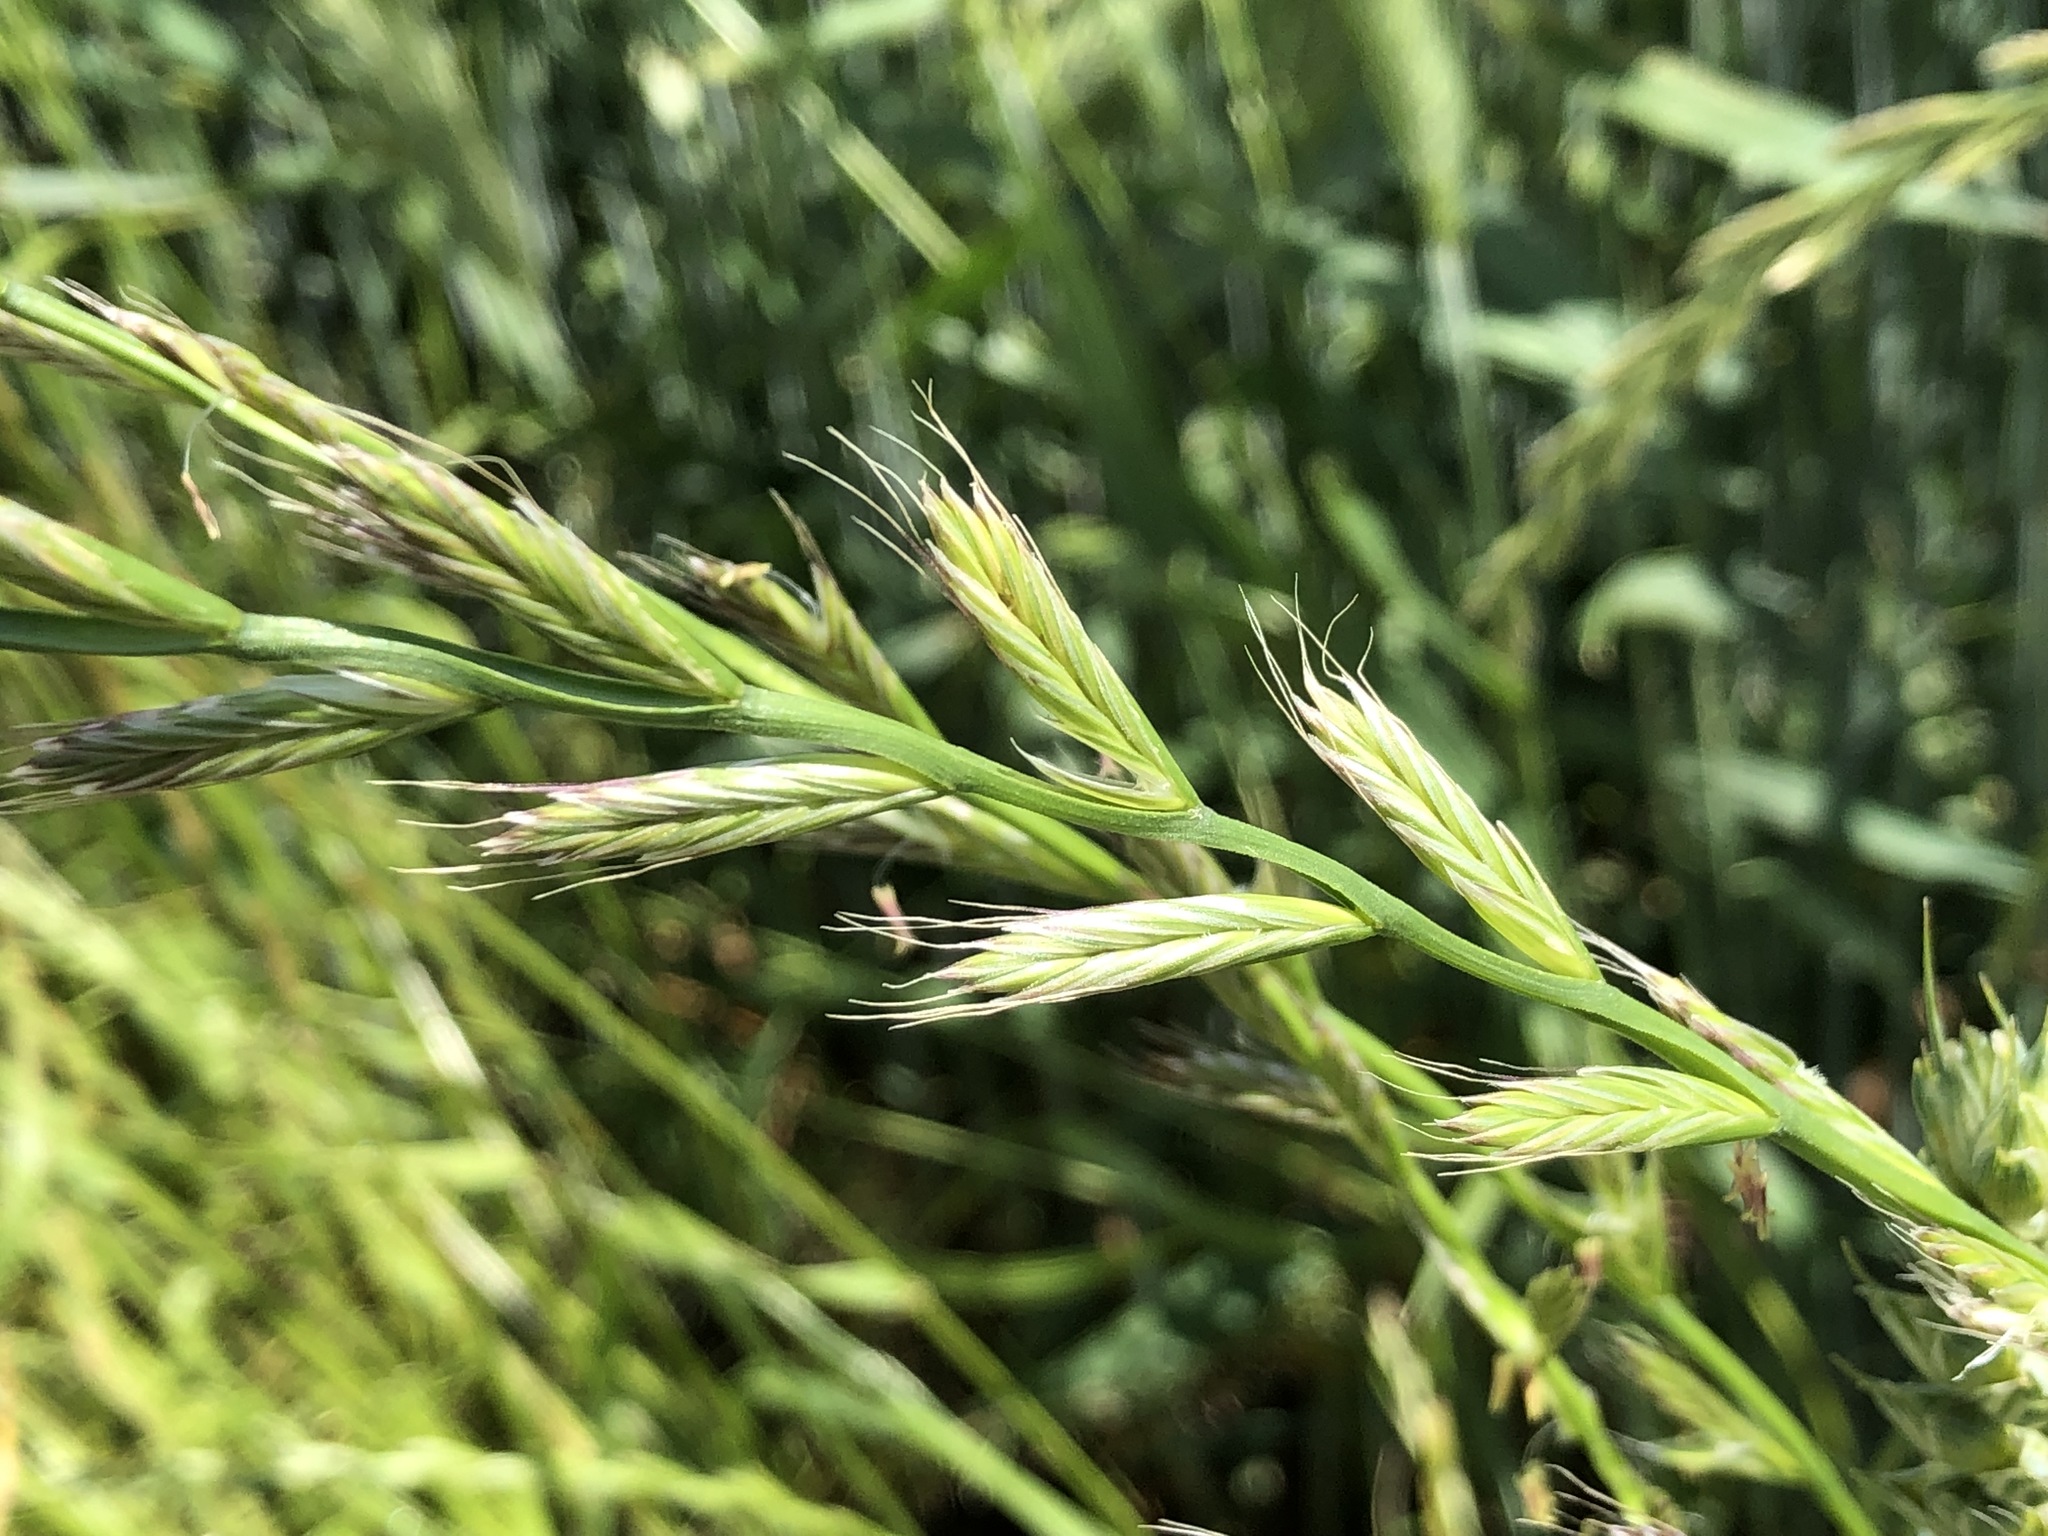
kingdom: Plantae
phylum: Tracheophyta
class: Liliopsida
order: Poales
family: Poaceae
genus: Lolium
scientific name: Lolium multiflorum
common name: Annual ryegrass
